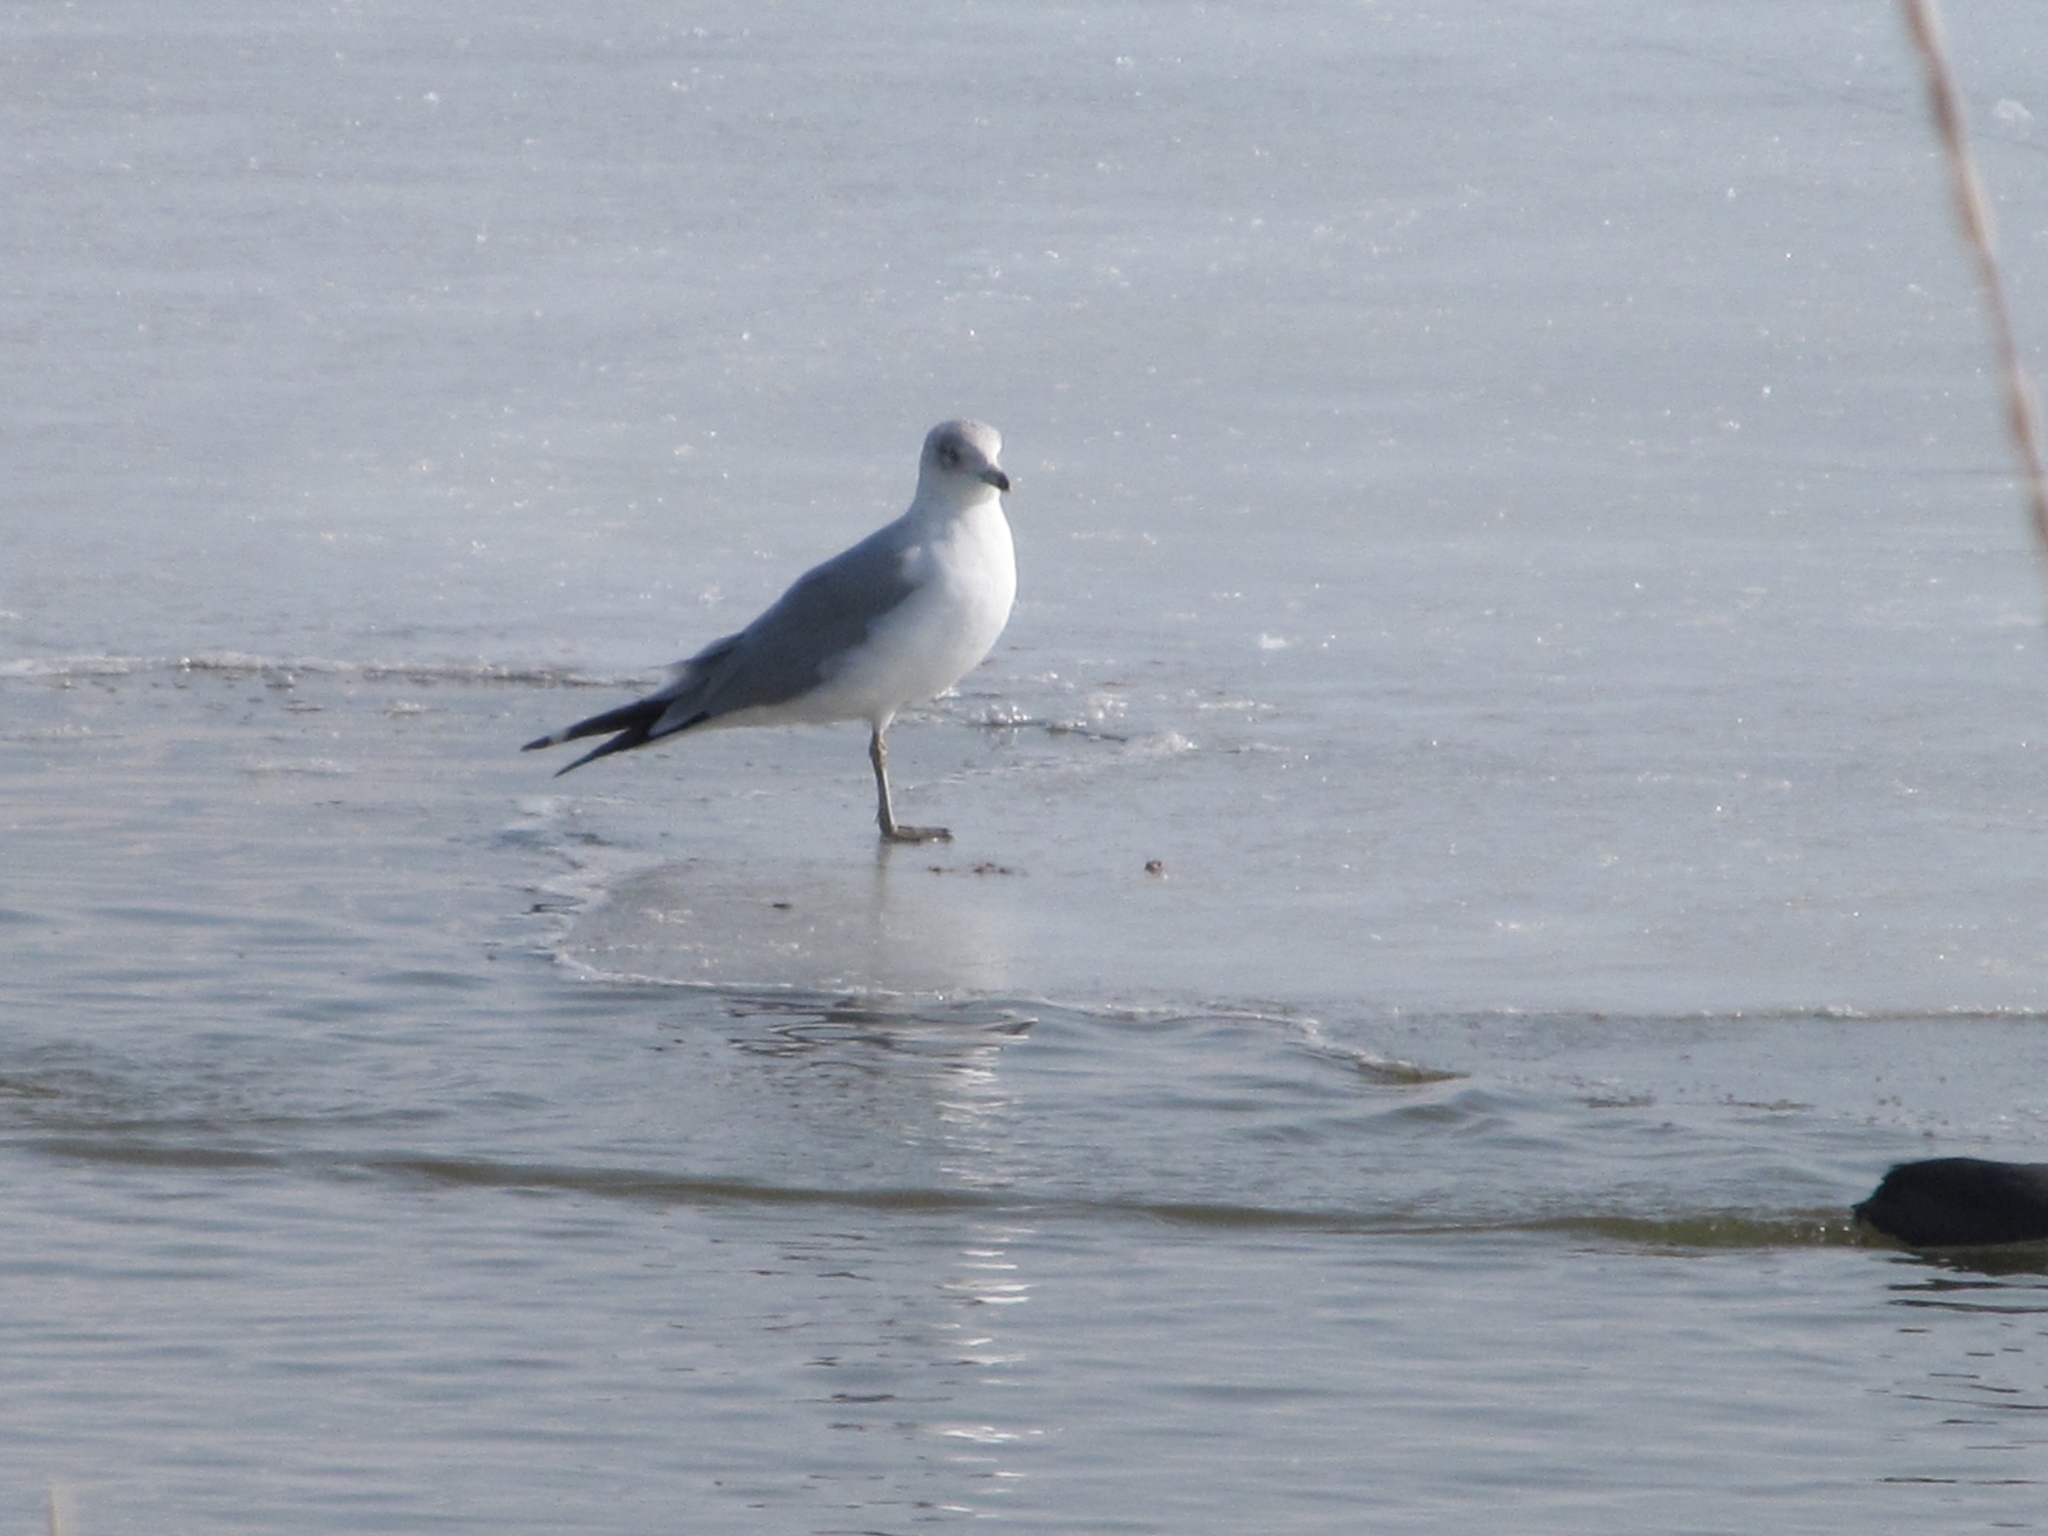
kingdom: Animalia
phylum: Chordata
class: Aves
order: Charadriiformes
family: Laridae
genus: Larus
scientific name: Larus delawarensis
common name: Ring-billed gull
